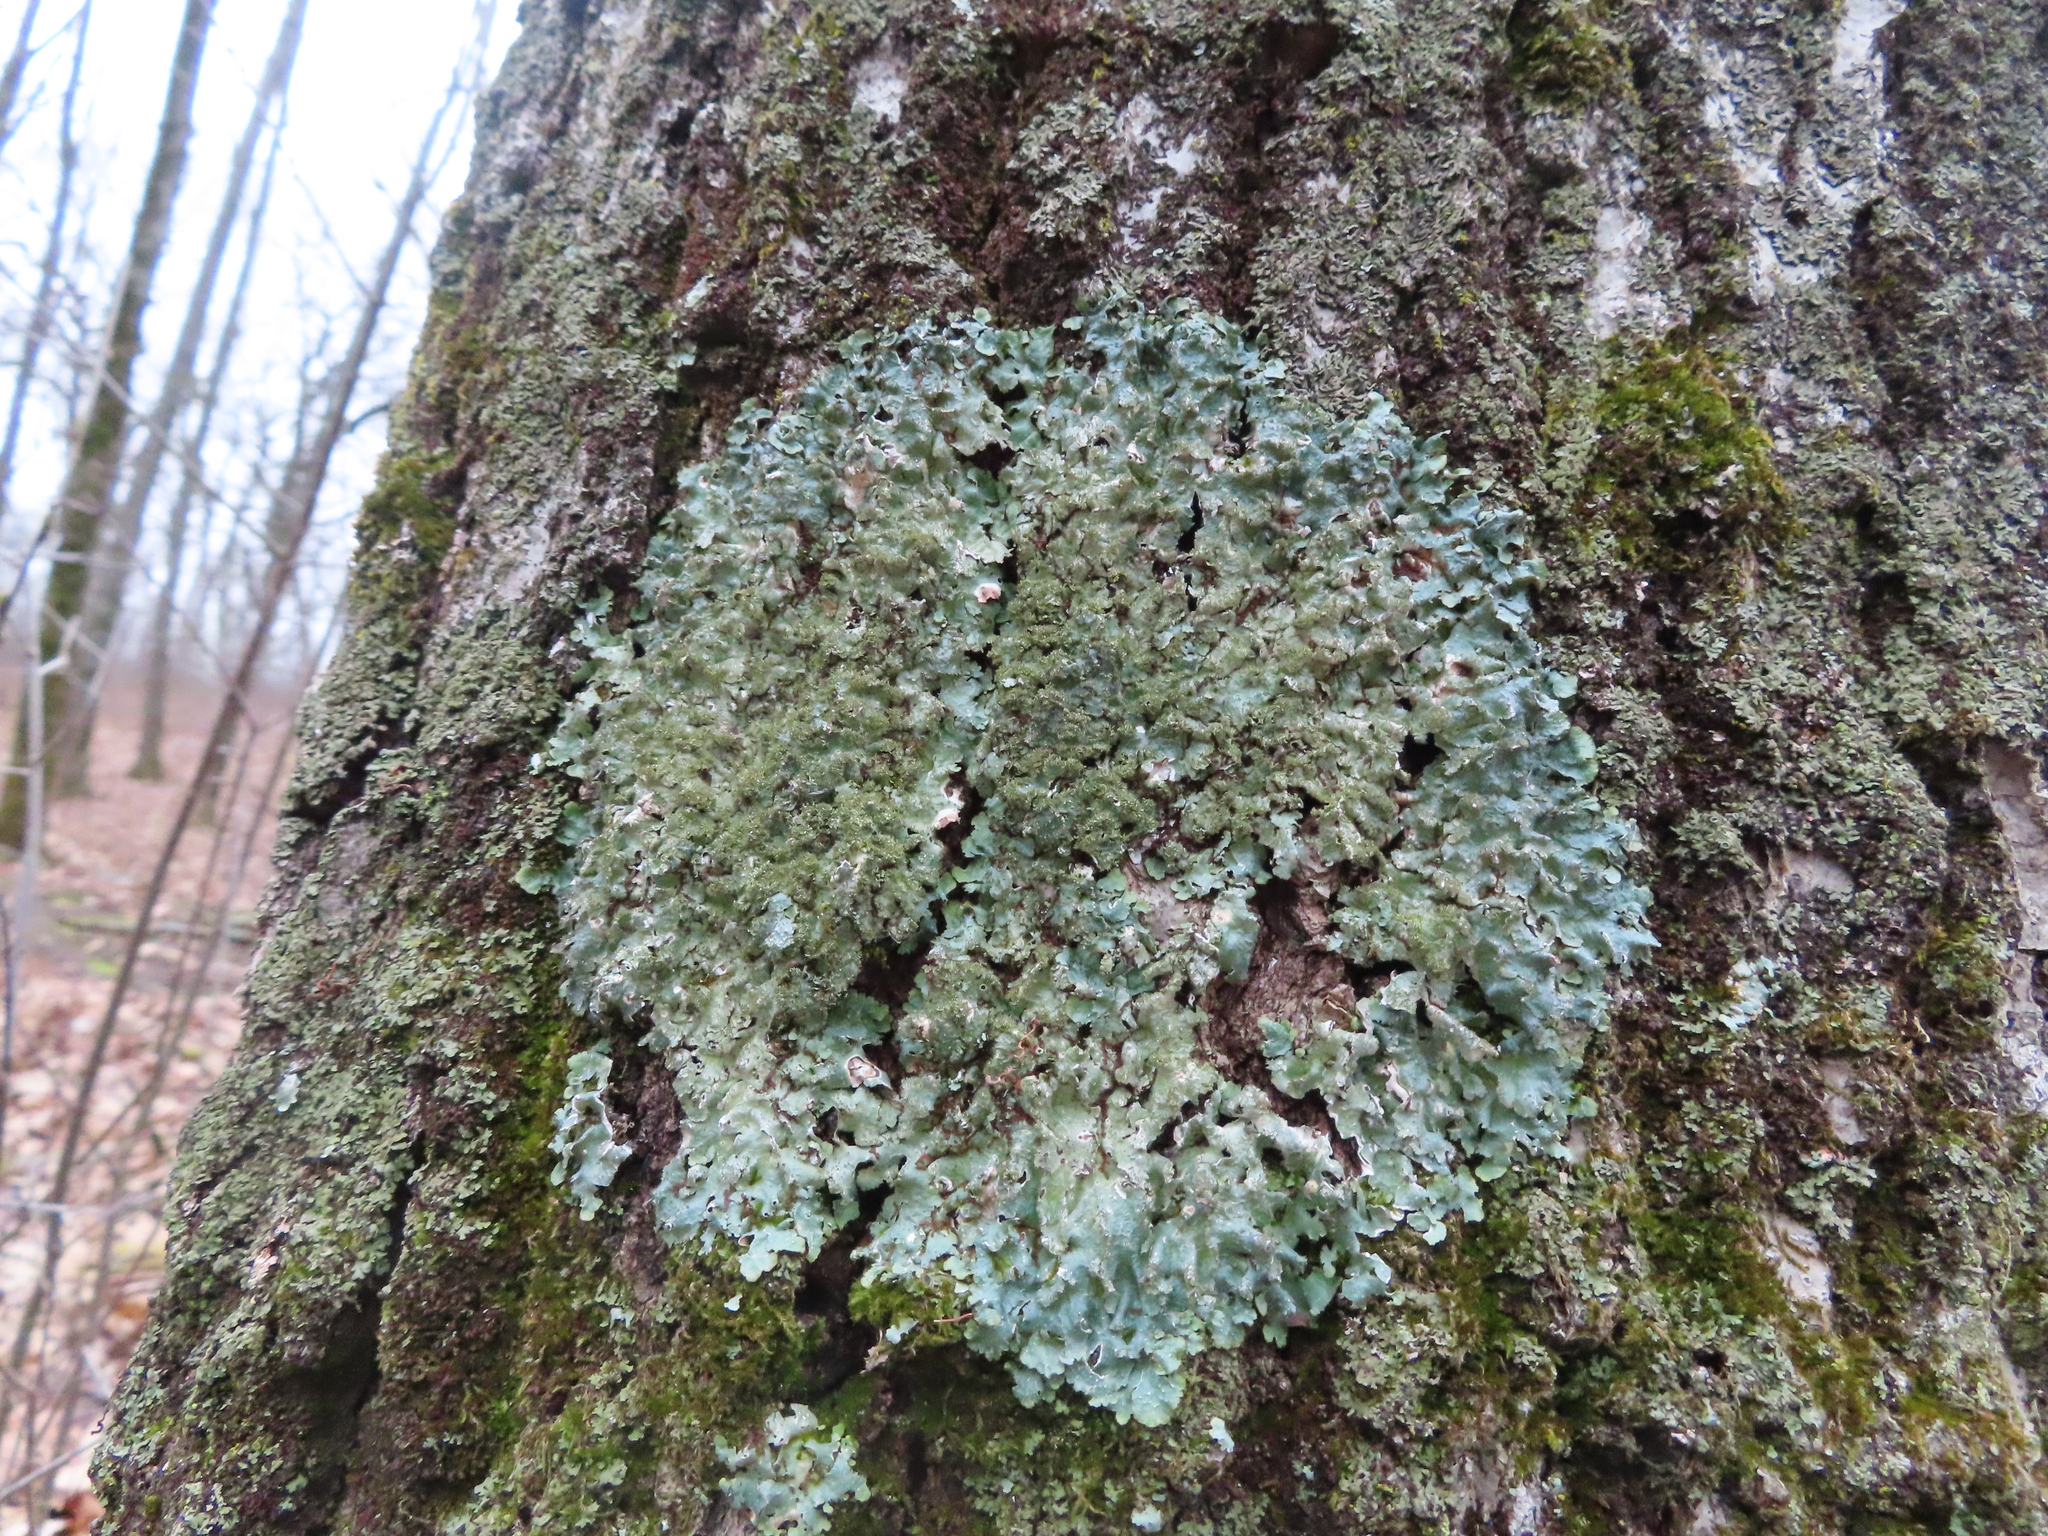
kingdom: Fungi
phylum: Ascomycota
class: Lecanoromycetes
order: Lecanorales
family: Parmeliaceae
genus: Punctelia
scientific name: Punctelia rudecta
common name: Rough speckled shield lichen
